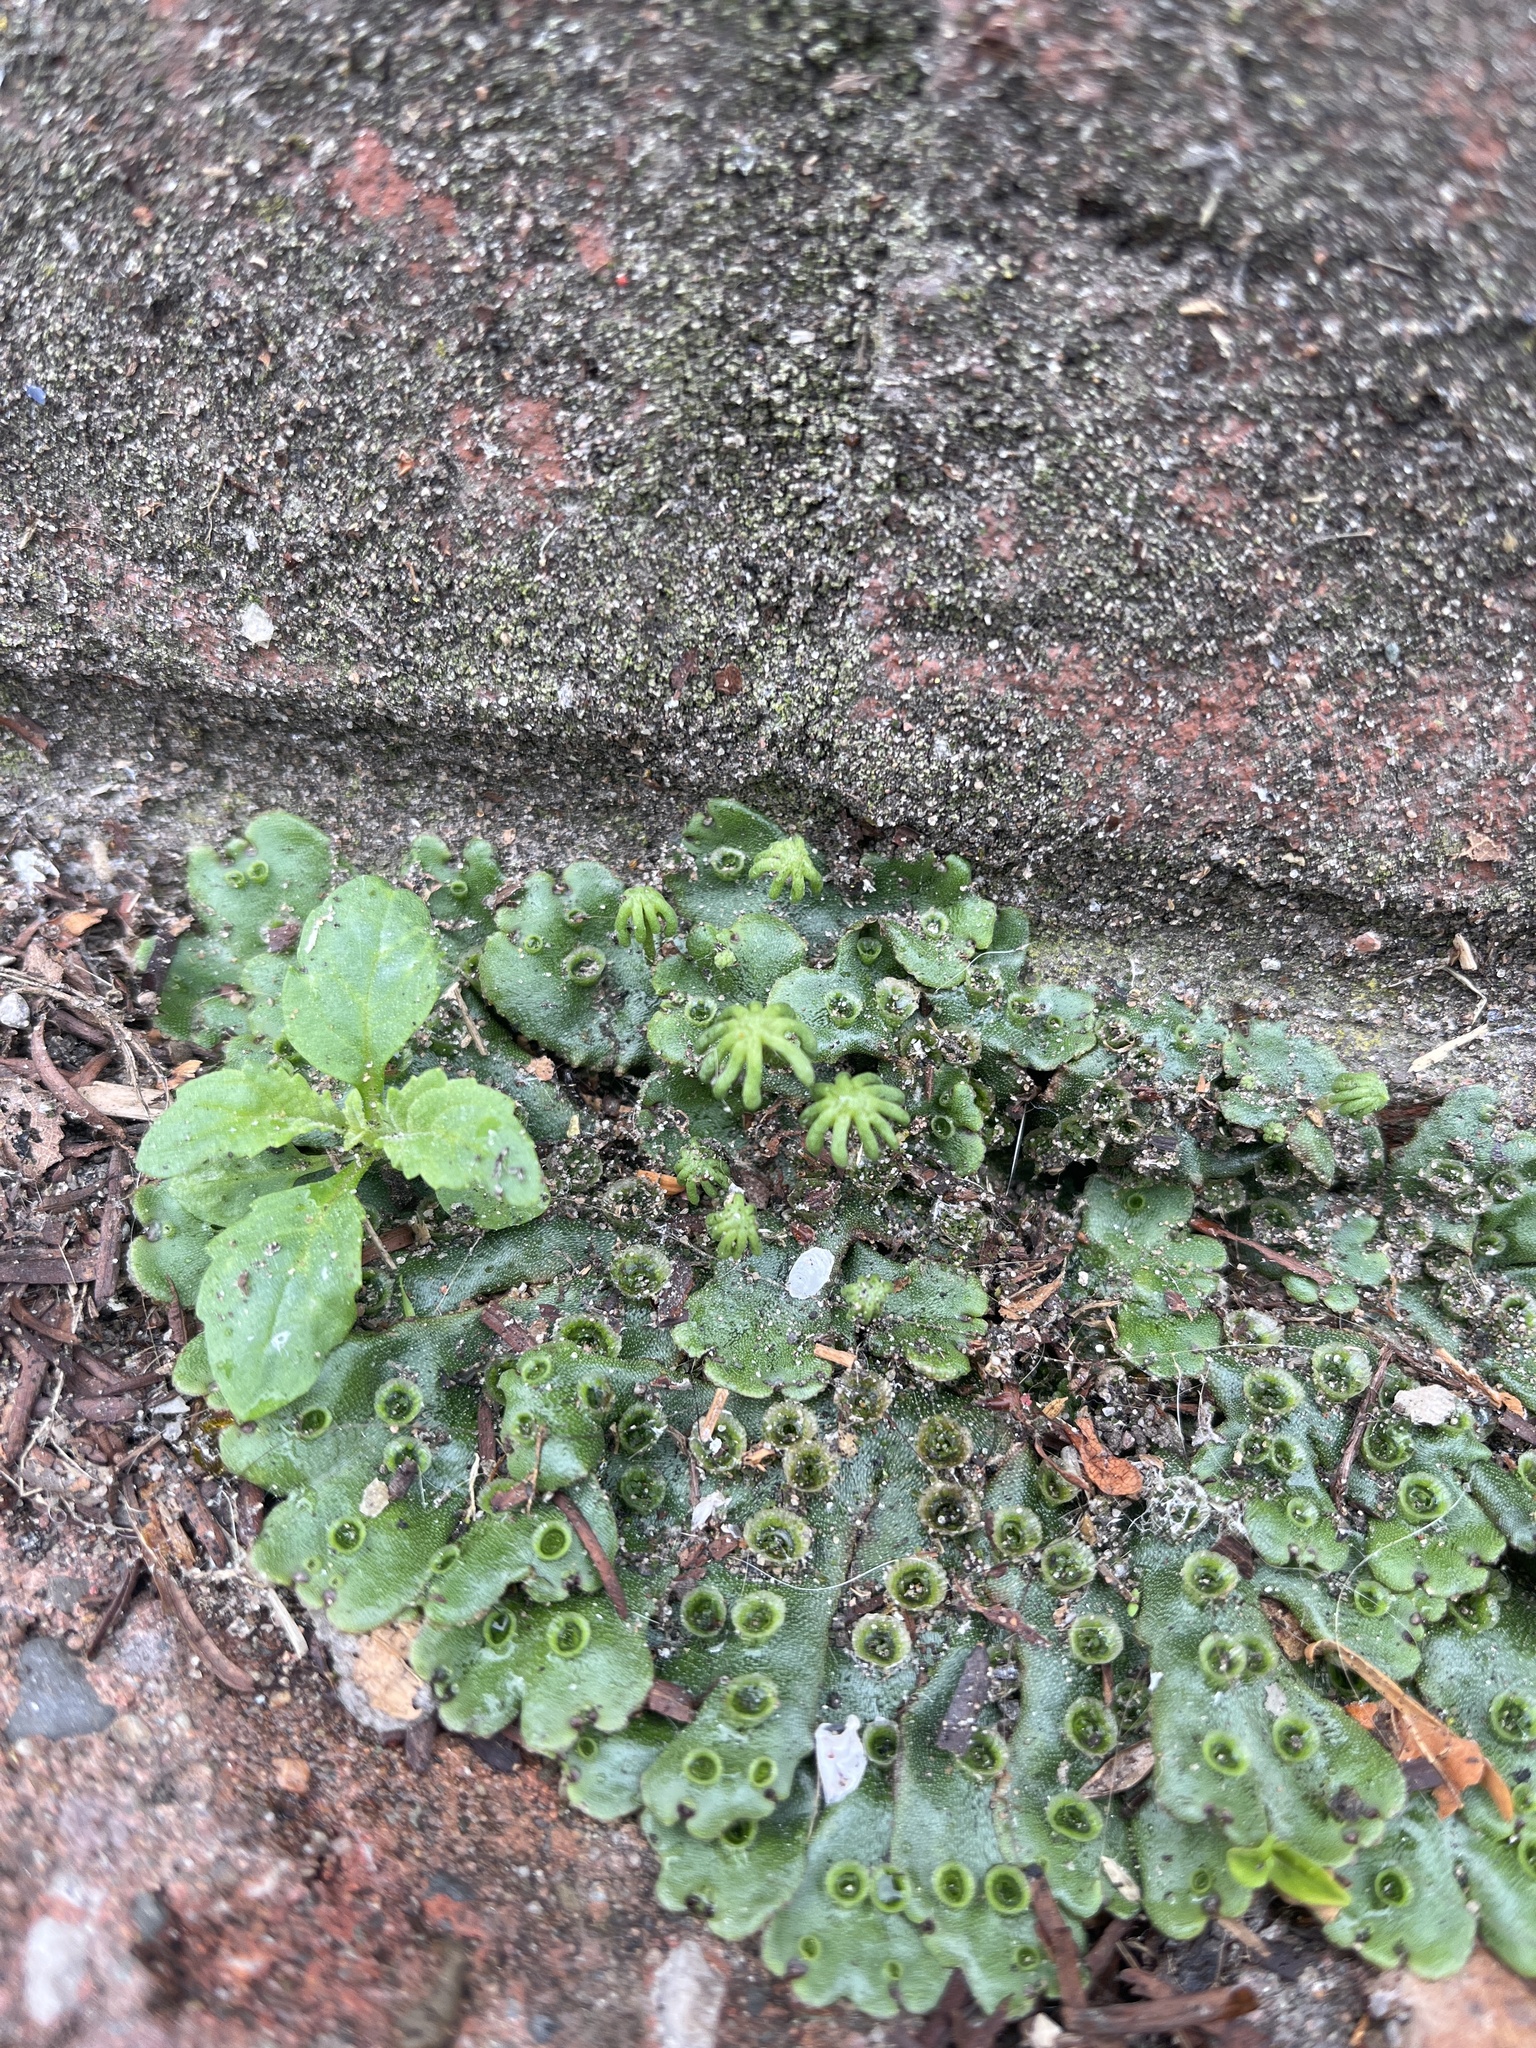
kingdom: Plantae
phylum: Marchantiophyta
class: Marchantiopsida
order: Marchantiales
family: Marchantiaceae
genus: Marchantia
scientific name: Marchantia polymorpha
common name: Common liverwort
